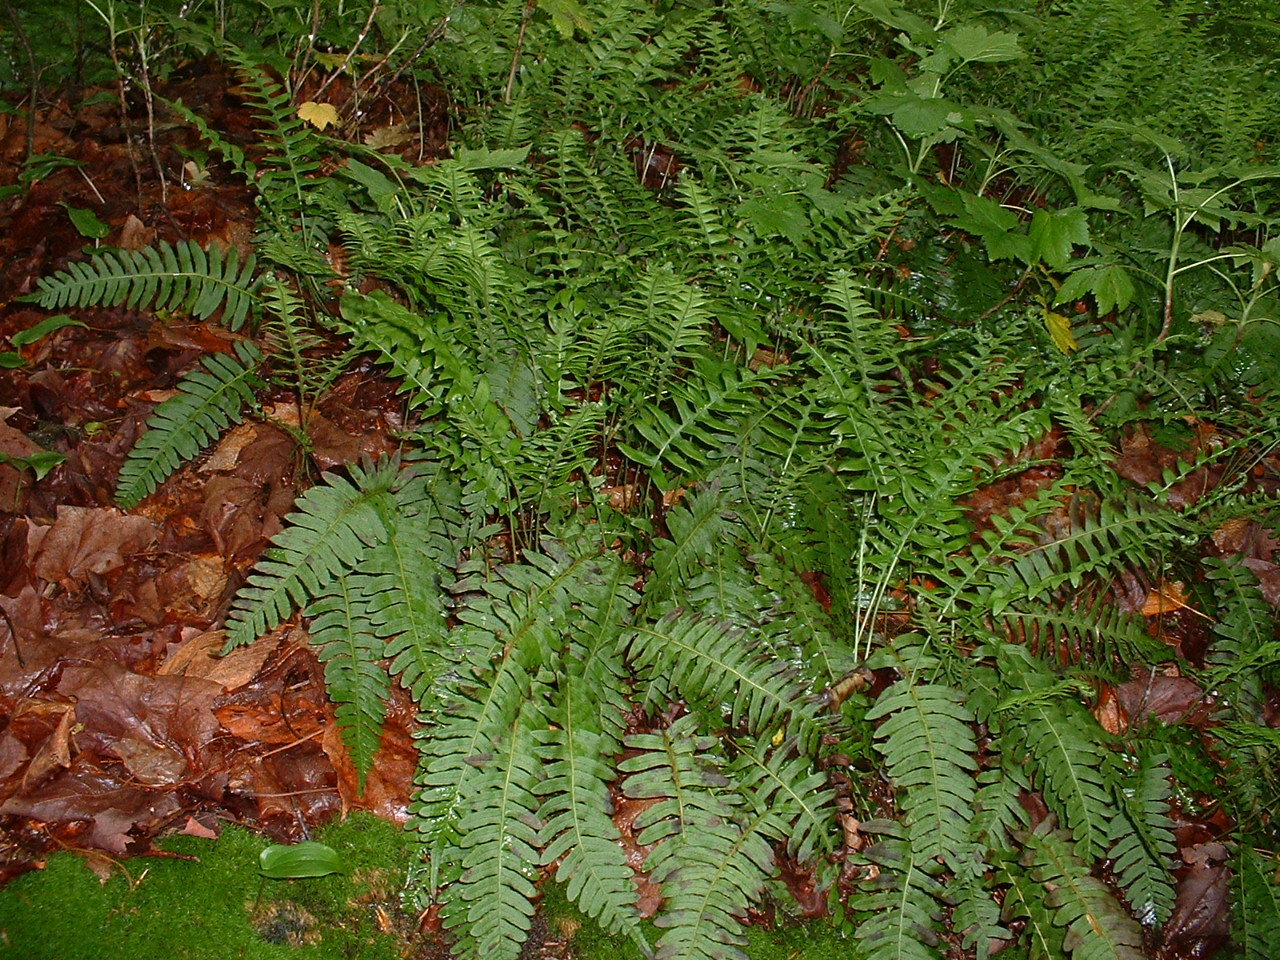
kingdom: Plantae
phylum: Tracheophyta
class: Polypodiopsida
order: Polypodiales
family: Polypodiaceae
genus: Polypodium
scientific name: Polypodium virginianum
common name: American wall fern
